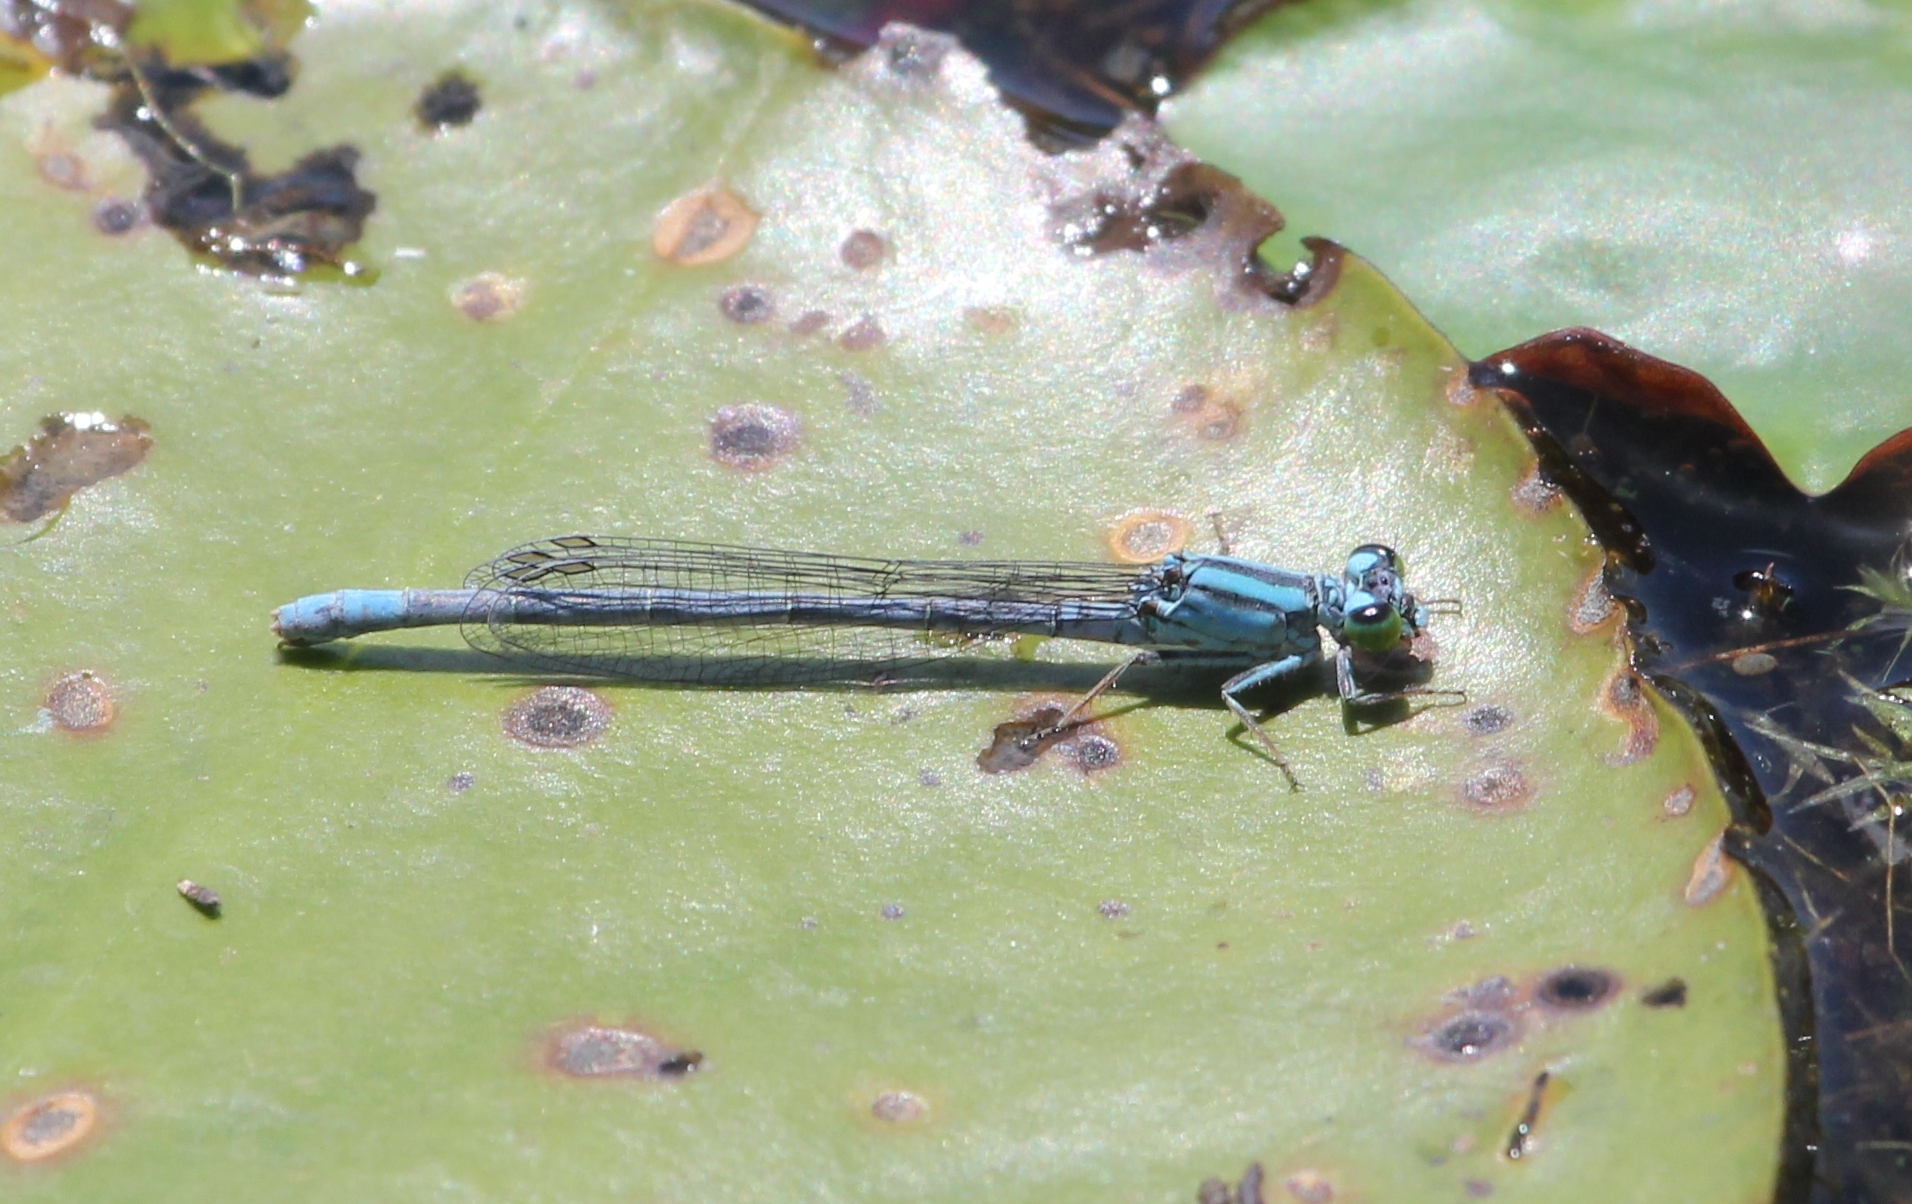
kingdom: Animalia
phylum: Arthropoda
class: Insecta
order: Odonata
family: Coenagrionidae
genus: Ischnura
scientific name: Ischnura kellicotti
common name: Lilypad forktail
